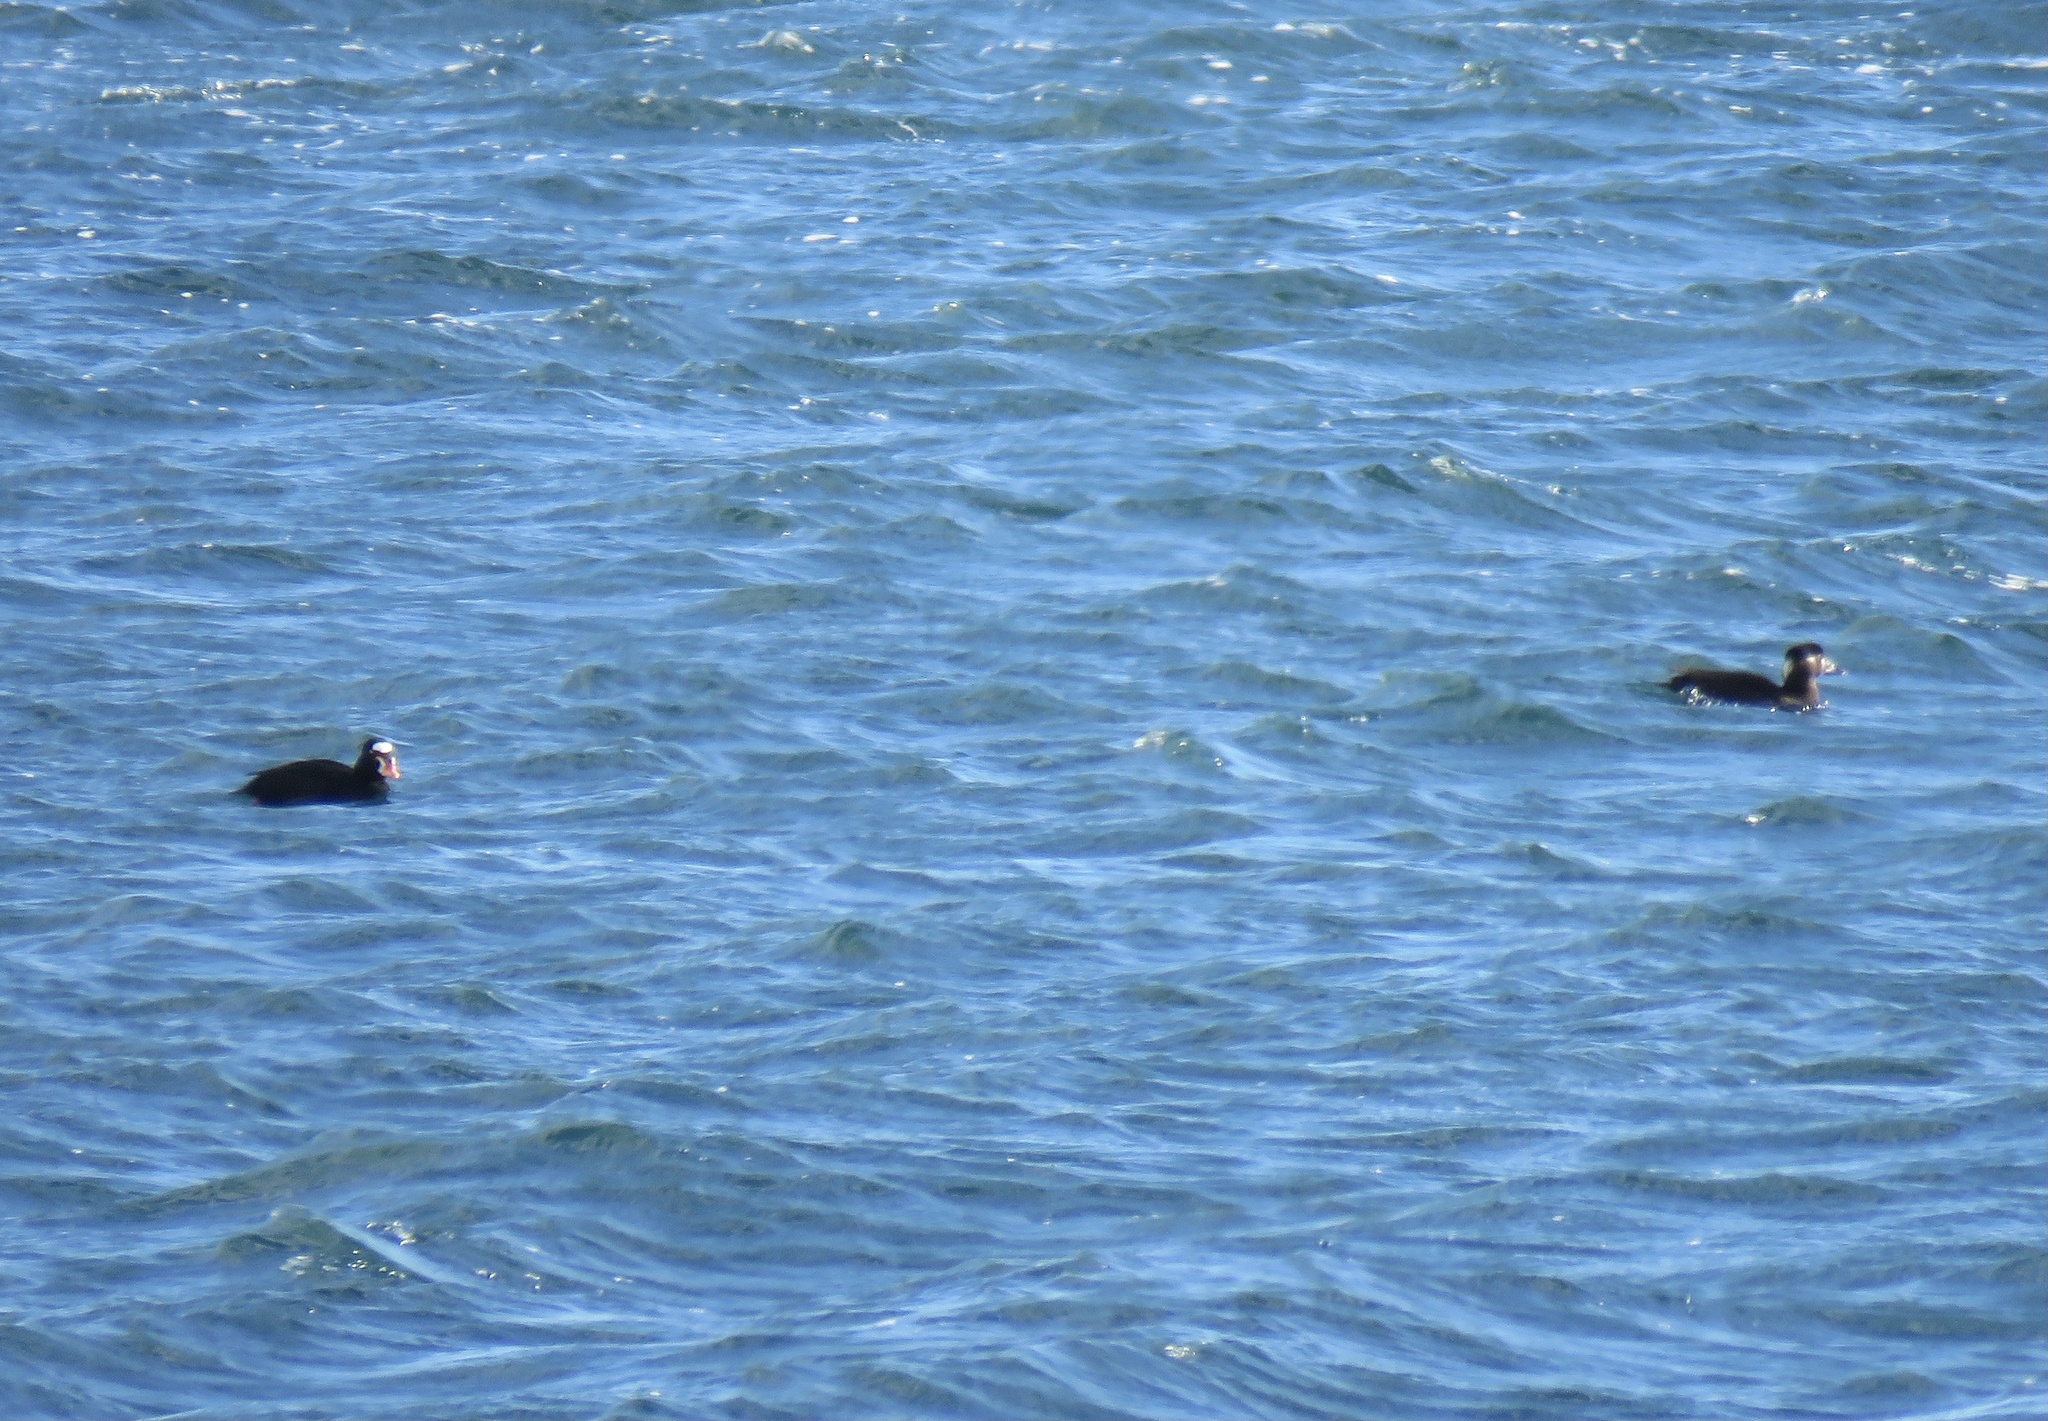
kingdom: Animalia
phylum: Chordata
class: Aves
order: Anseriformes
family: Anatidae
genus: Melanitta
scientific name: Melanitta perspicillata
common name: Surf scoter
